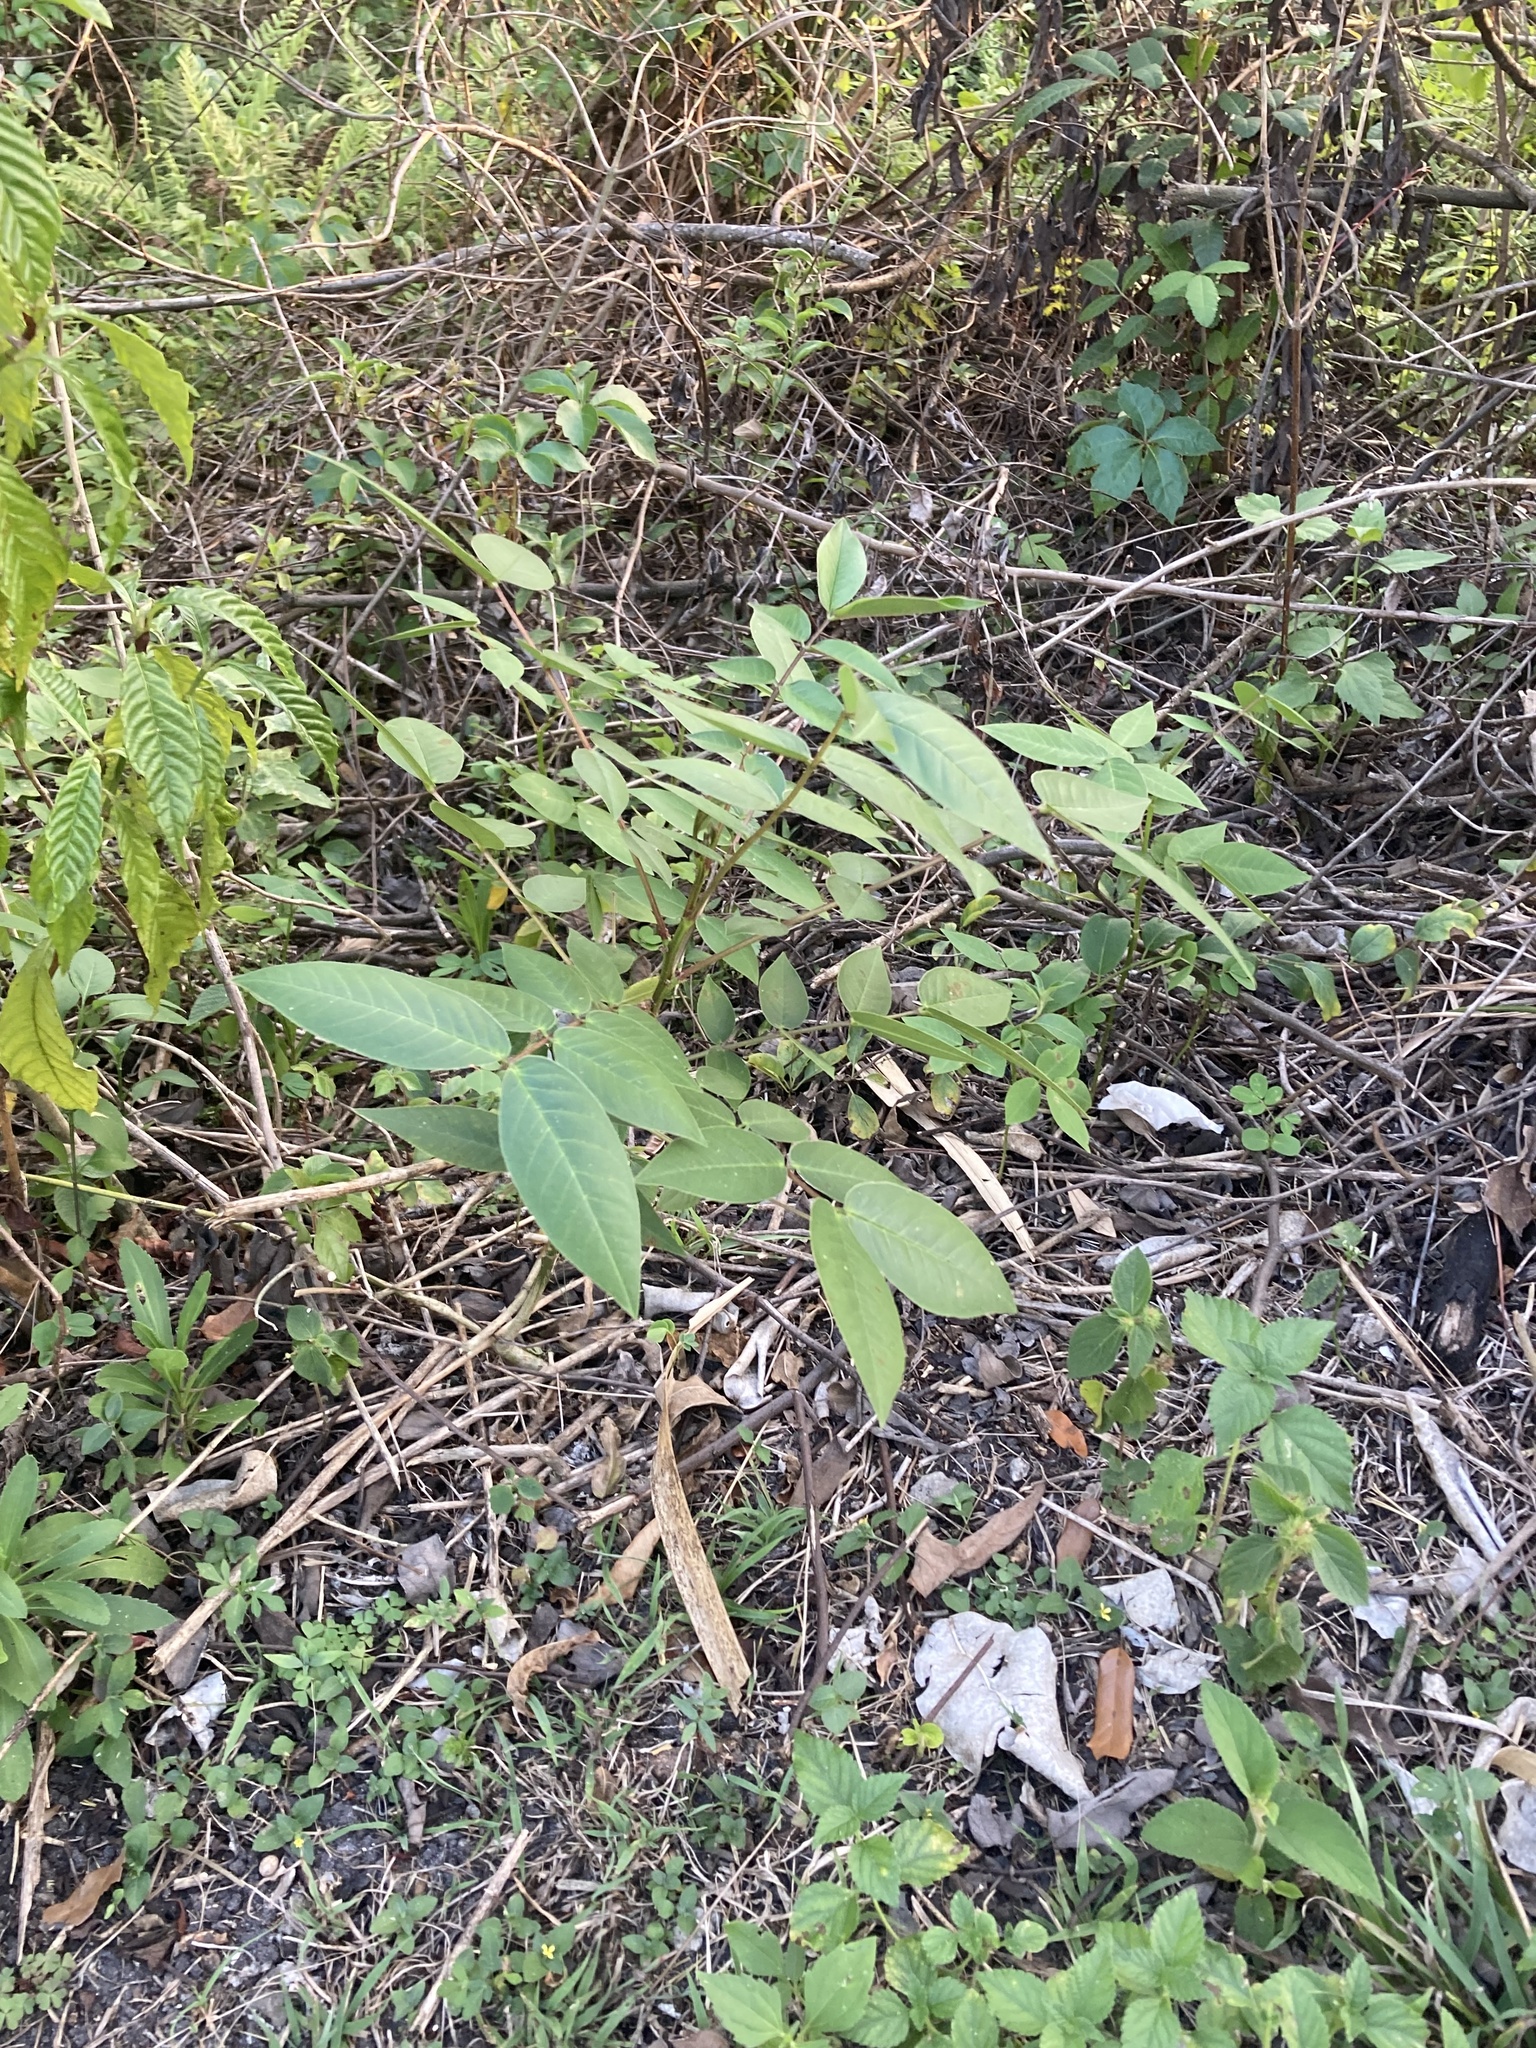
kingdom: Plantae
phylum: Tracheophyta
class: Magnoliopsida
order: Fabales
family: Fabaceae
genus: Senna
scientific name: Senna occidentalis
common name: Septicweed
